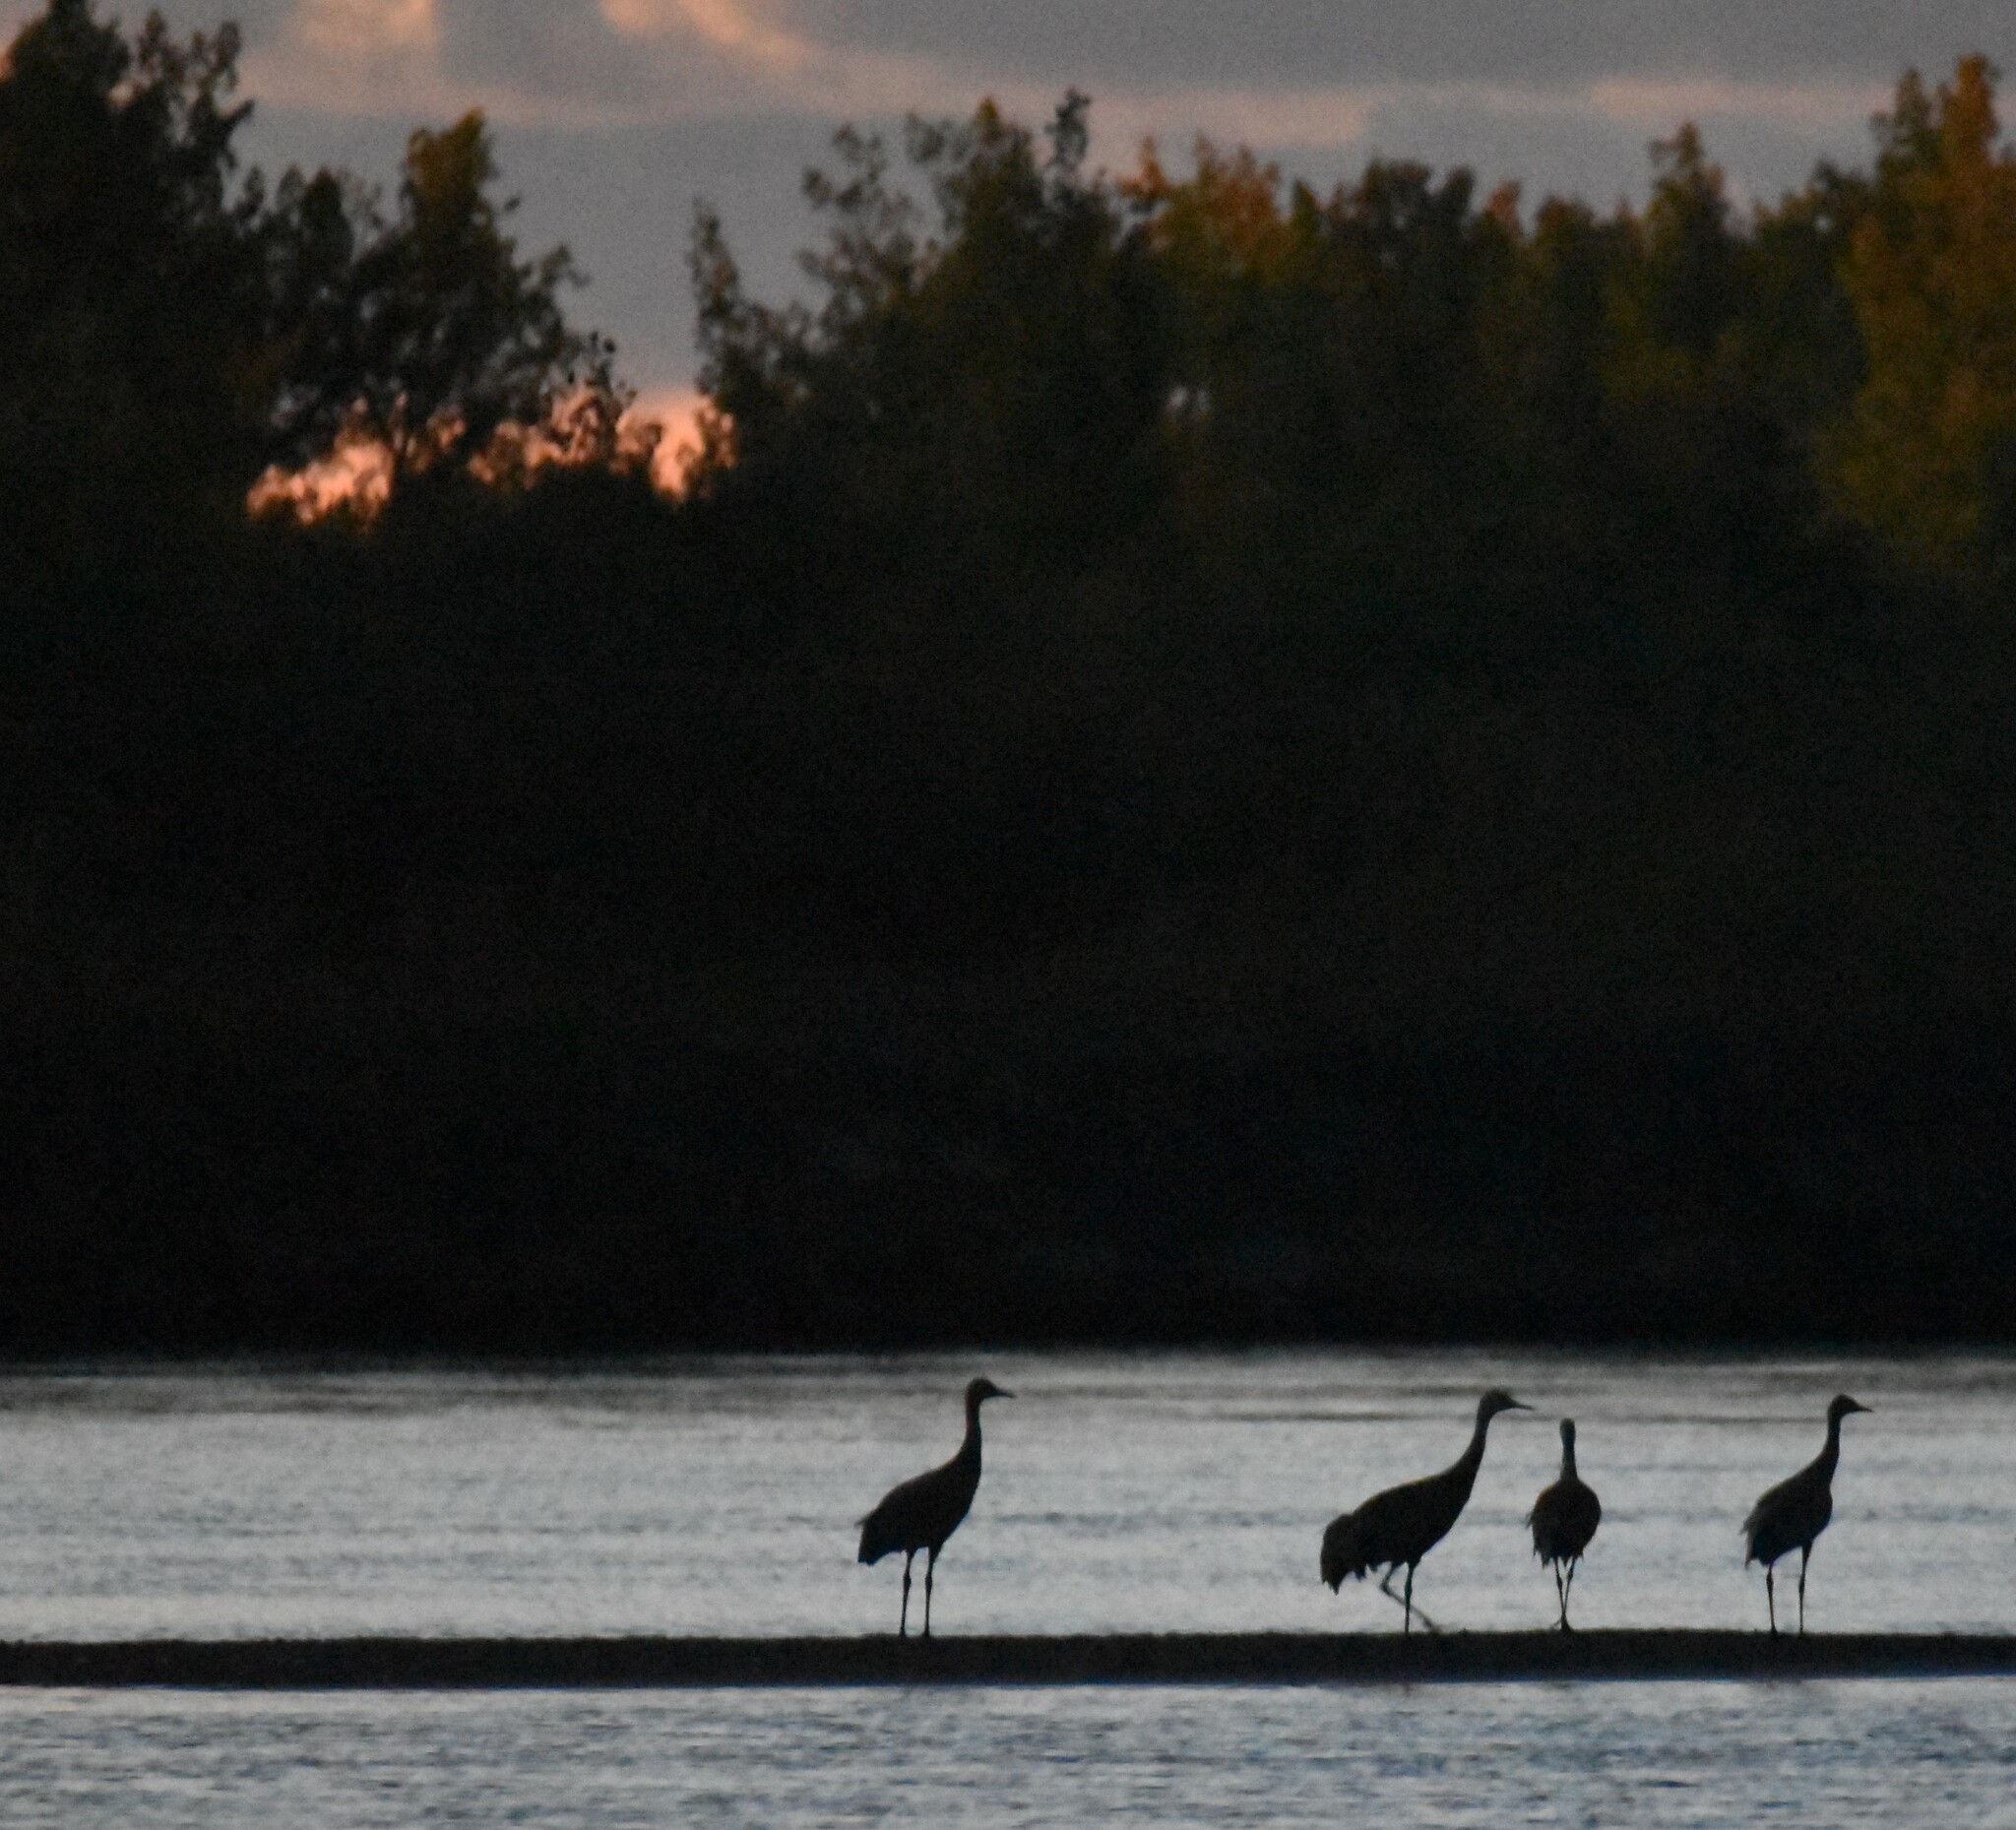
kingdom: Animalia
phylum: Chordata
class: Aves
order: Gruiformes
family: Gruidae
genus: Grus
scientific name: Grus canadensis
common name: Sandhill crane
